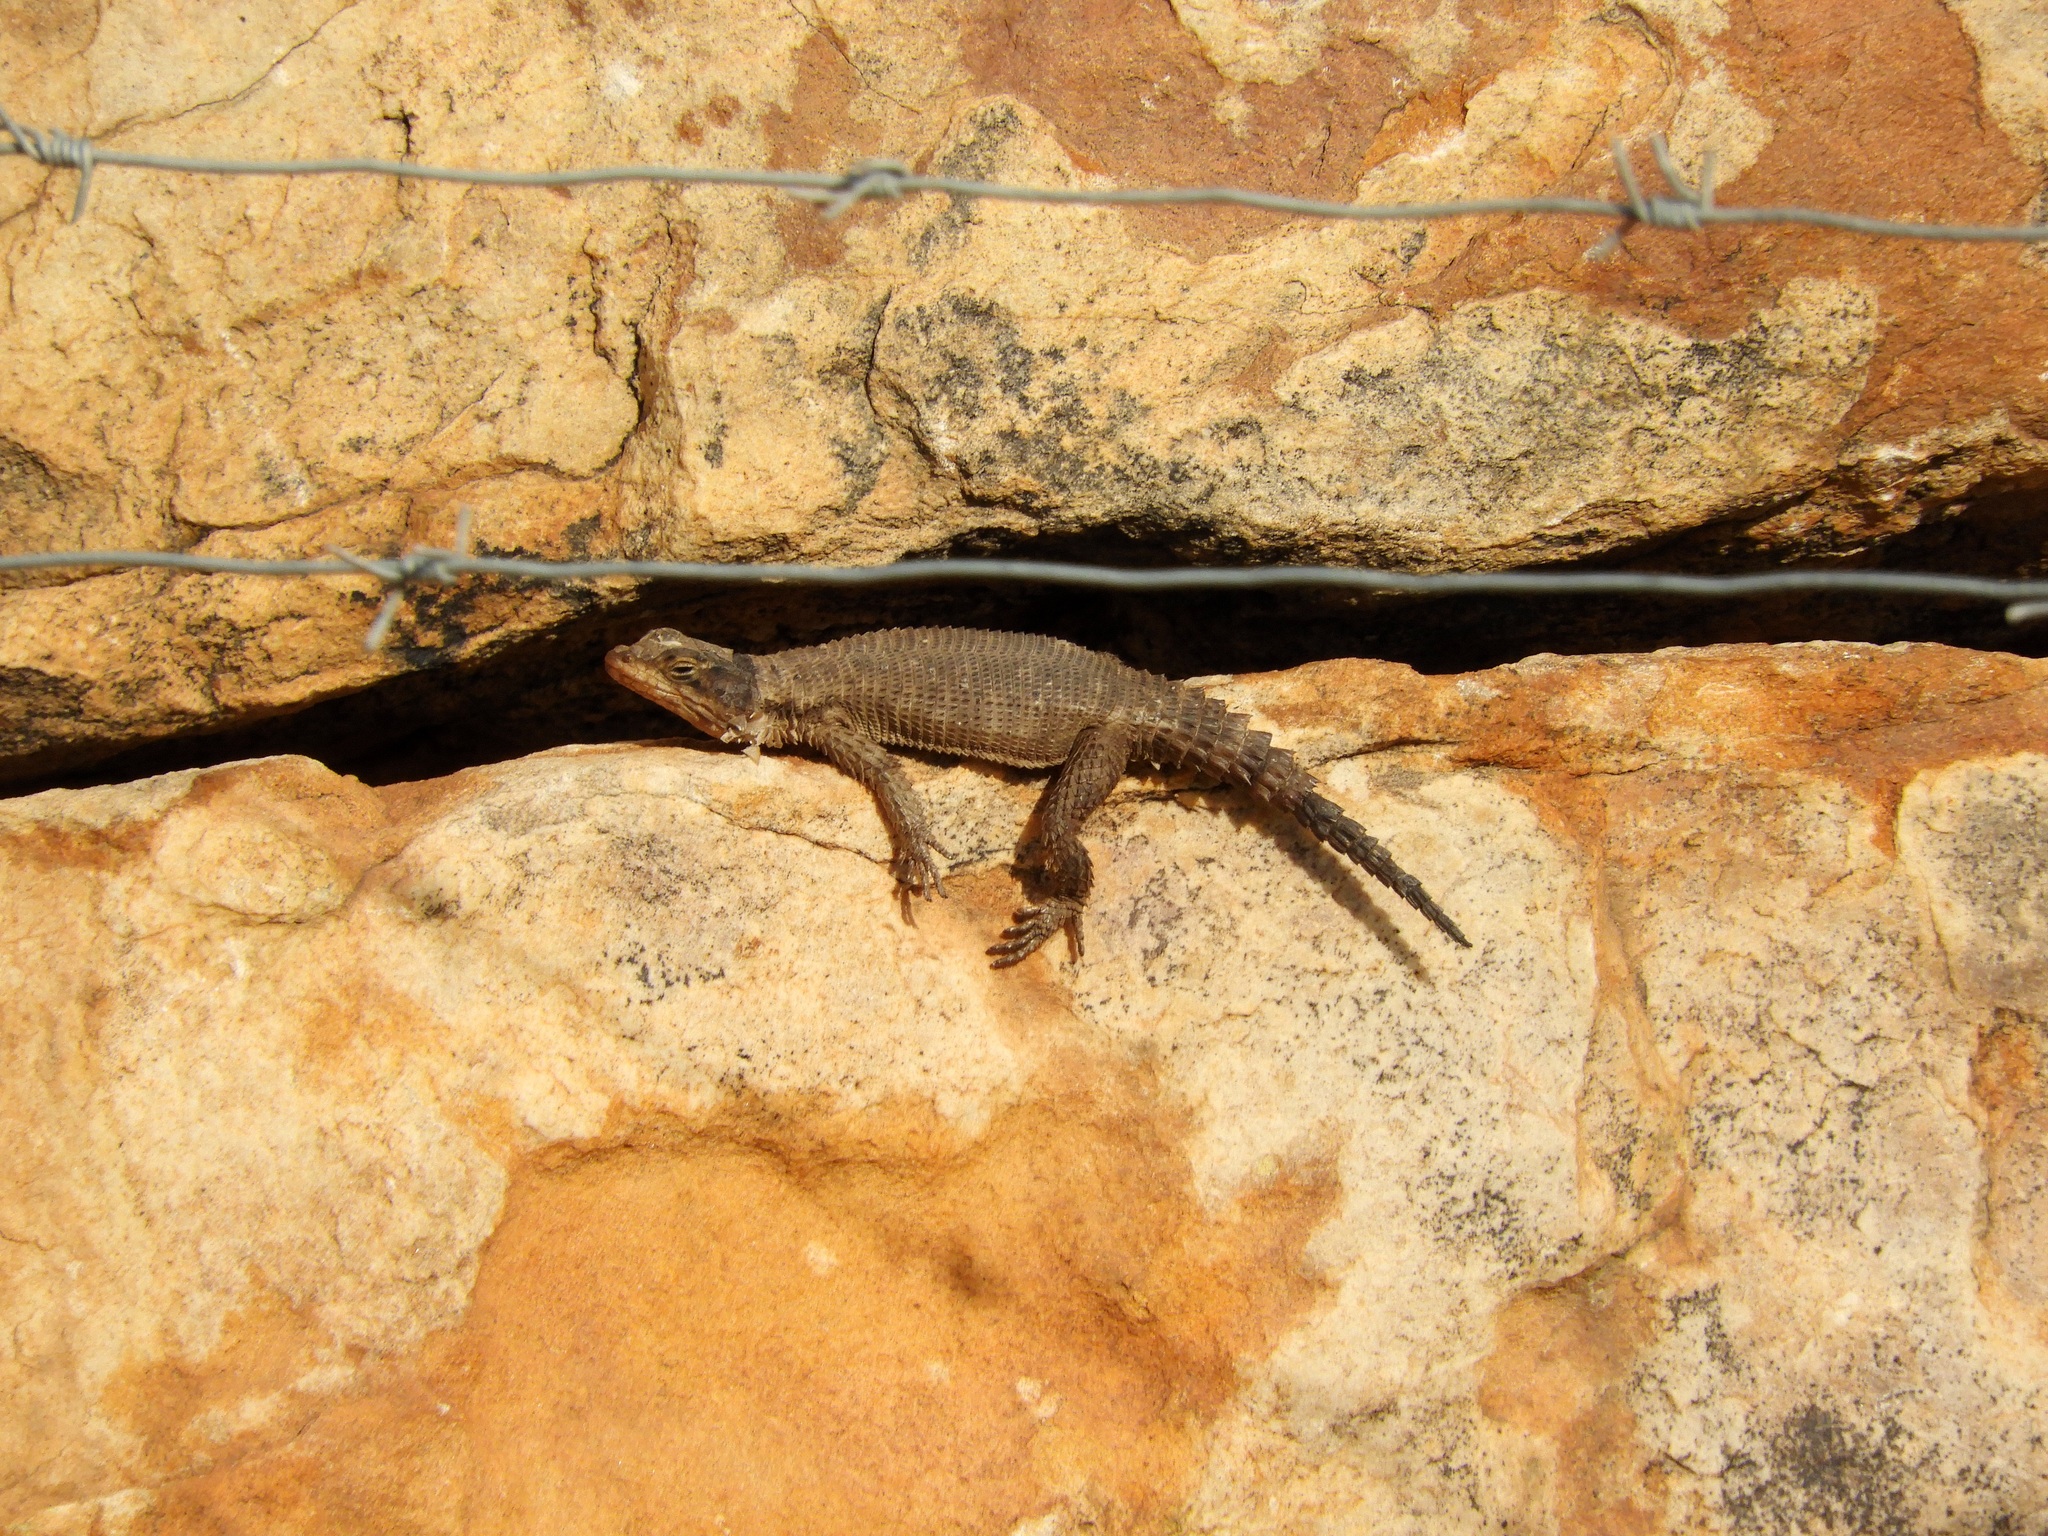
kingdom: Animalia
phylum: Chordata
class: Squamata
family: Cordylidae
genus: Karusasaurus
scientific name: Karusasaurus polyzonus
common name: Karoo girdled lizard
